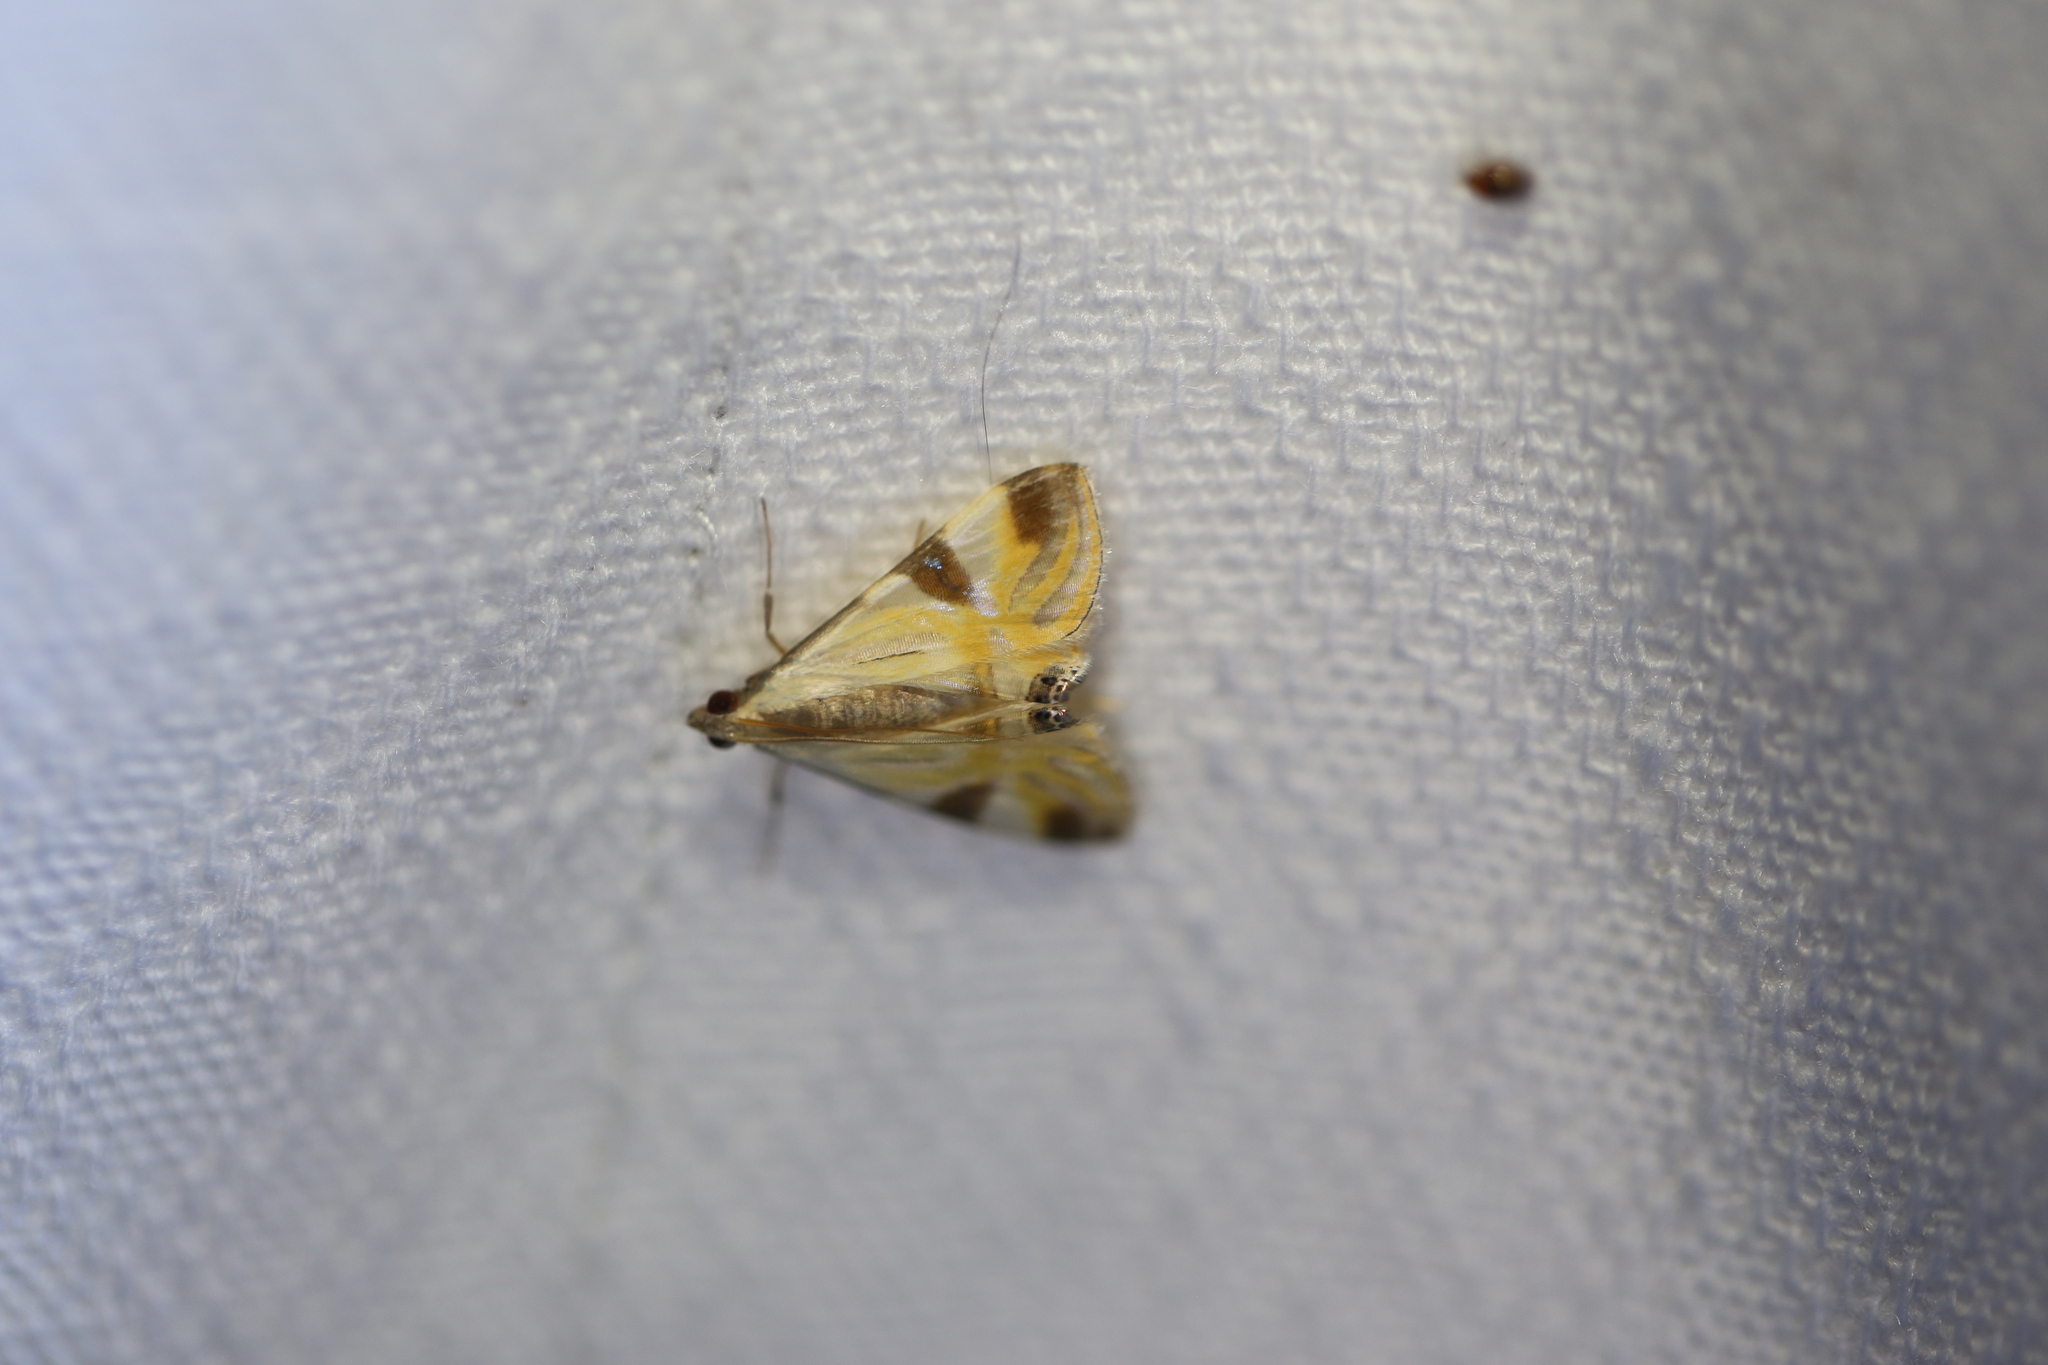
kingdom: Animalia
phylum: Arthropoda
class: Insecta
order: Lepidoptera
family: Crambidae
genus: Talanga
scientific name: Talanga tolumnialis
